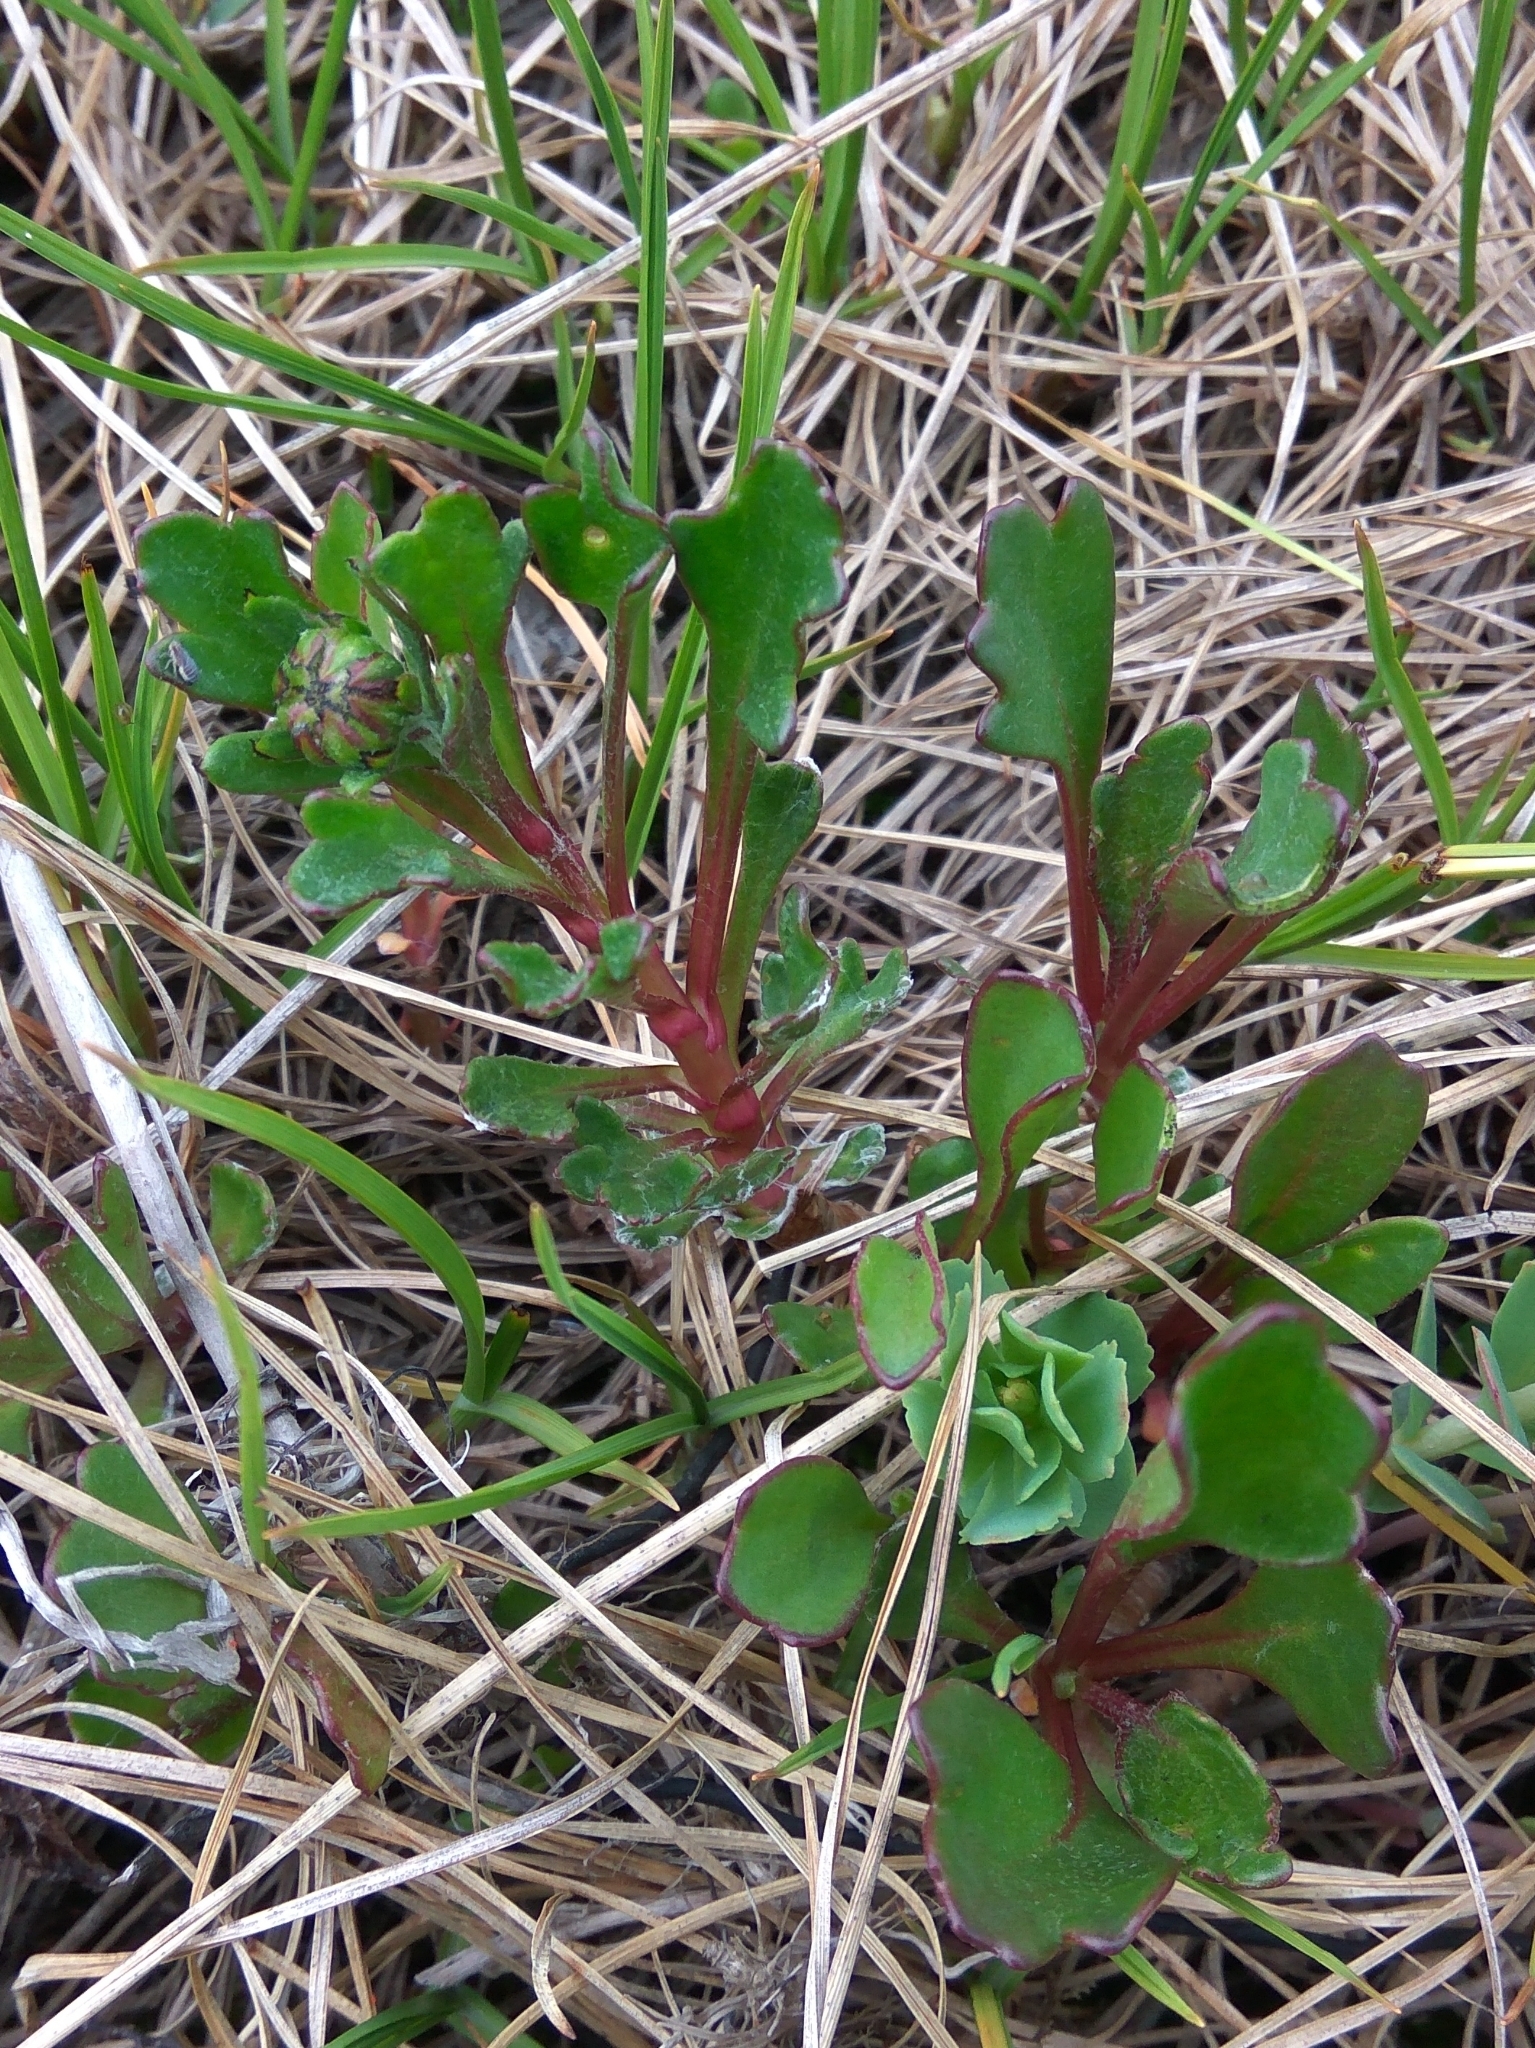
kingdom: Plantae
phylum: Tracheophyta
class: Magnoliopsida
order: Asterales
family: Asteraceae
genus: Arctanthemum
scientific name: Arctanthemum arcticum
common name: Arctic daisy
